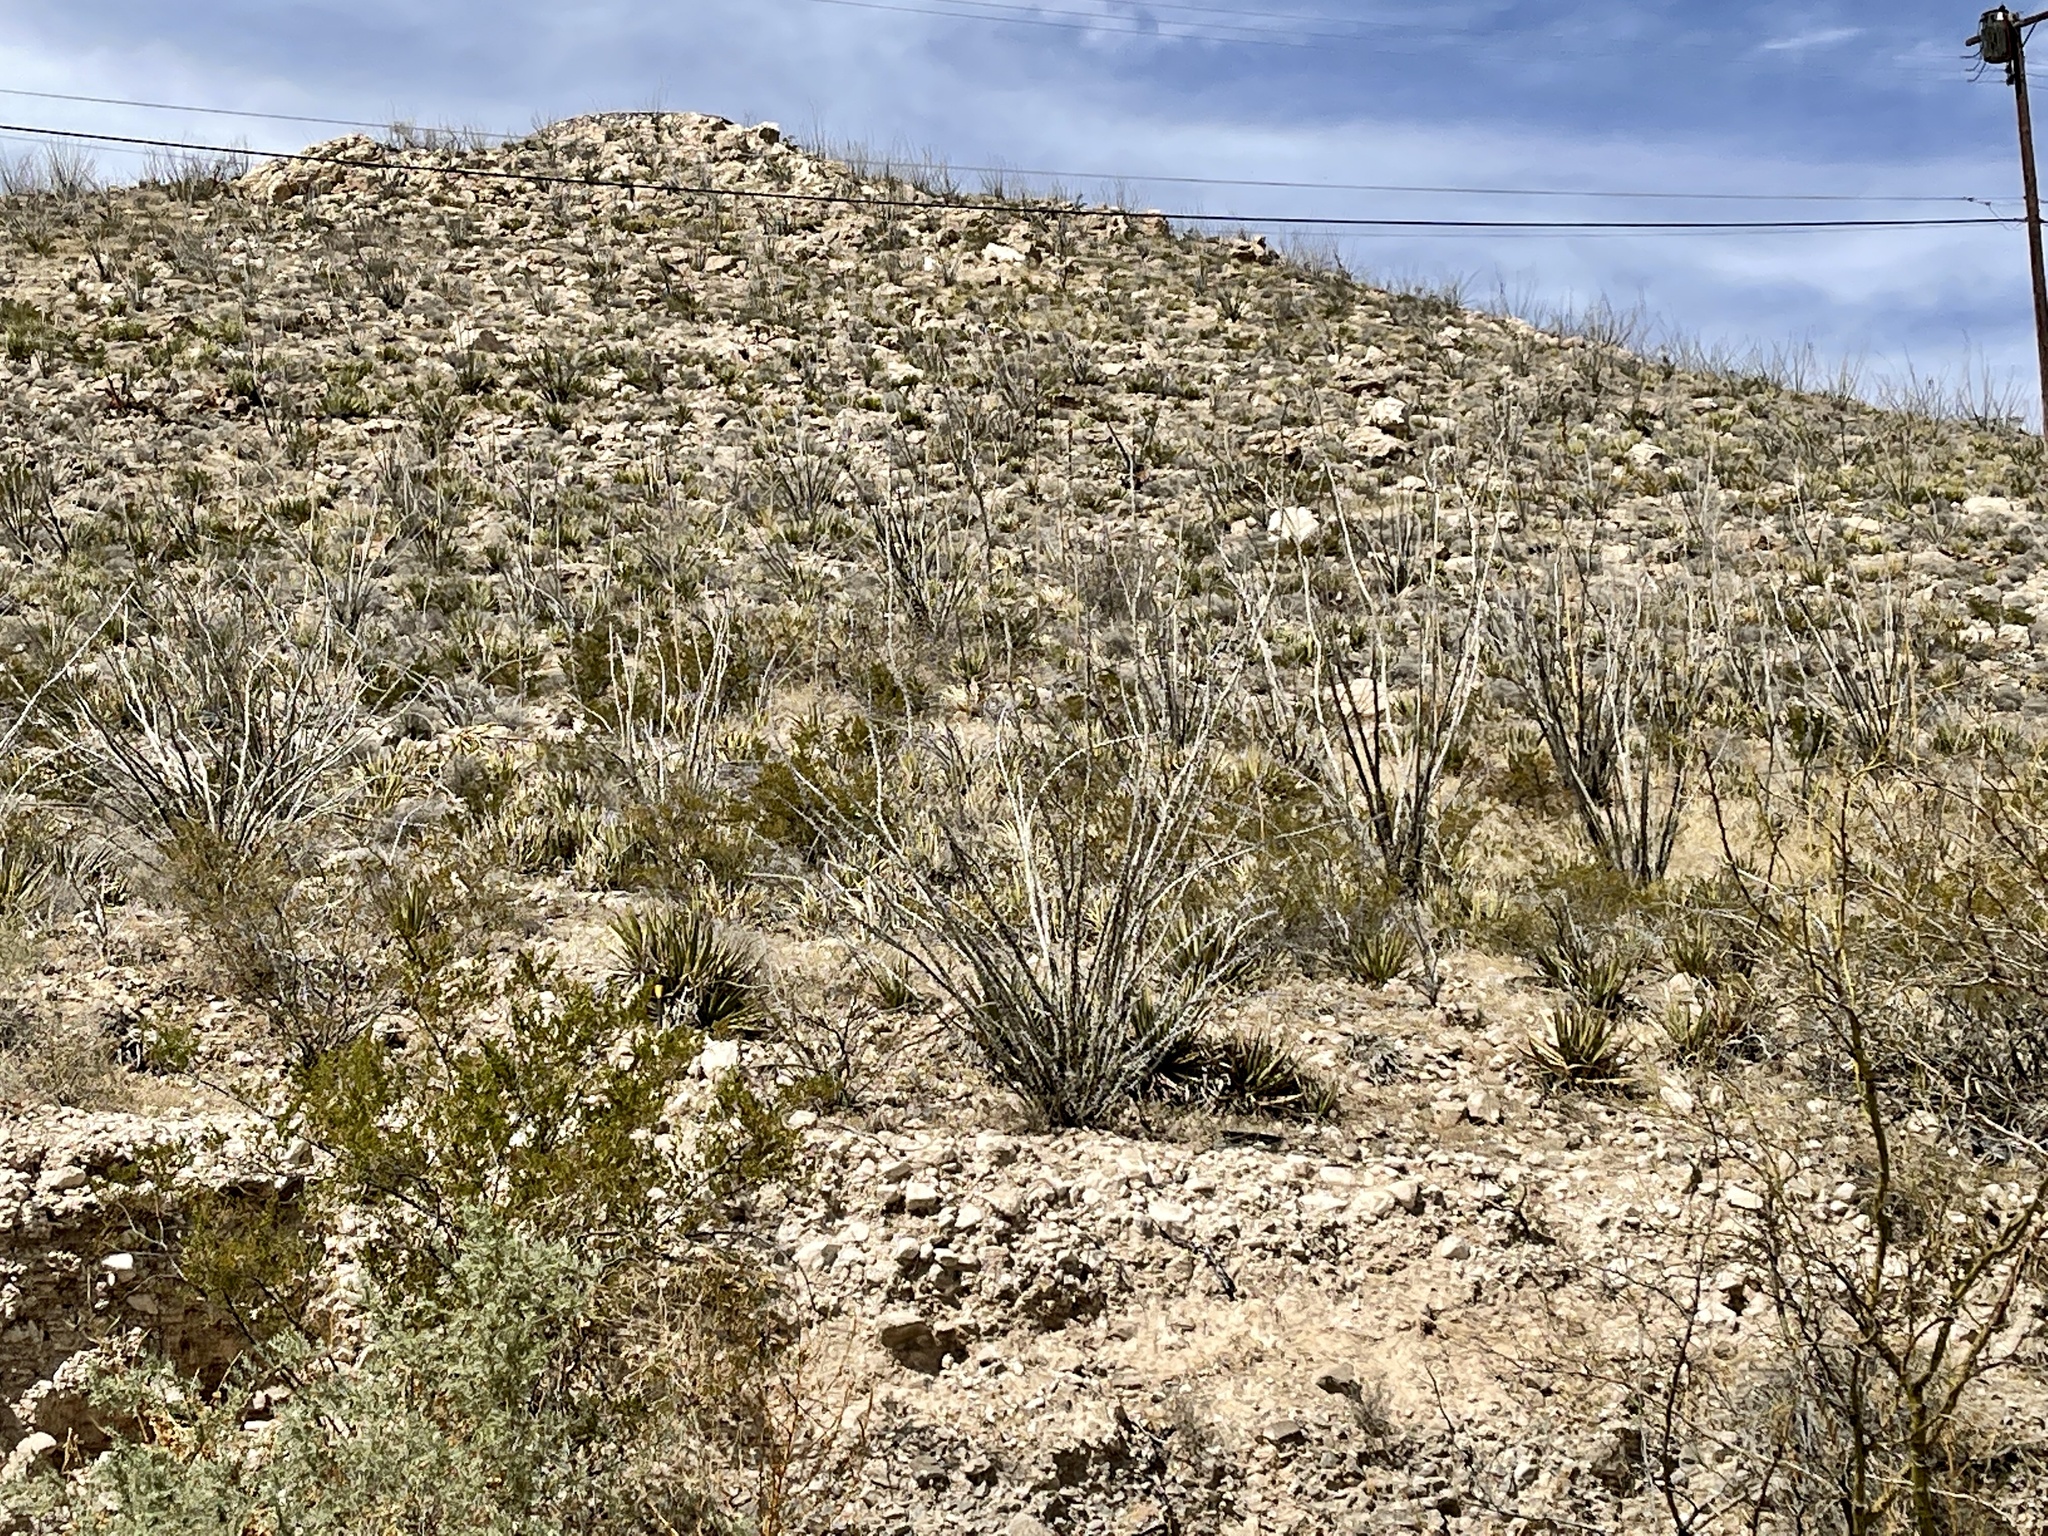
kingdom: Plantae
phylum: Tracheophyta
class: Magnoliopsida
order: Ericales
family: Fouquieriaceae
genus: Fouquieria
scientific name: Fouquieria splendens
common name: Vine-cactus
